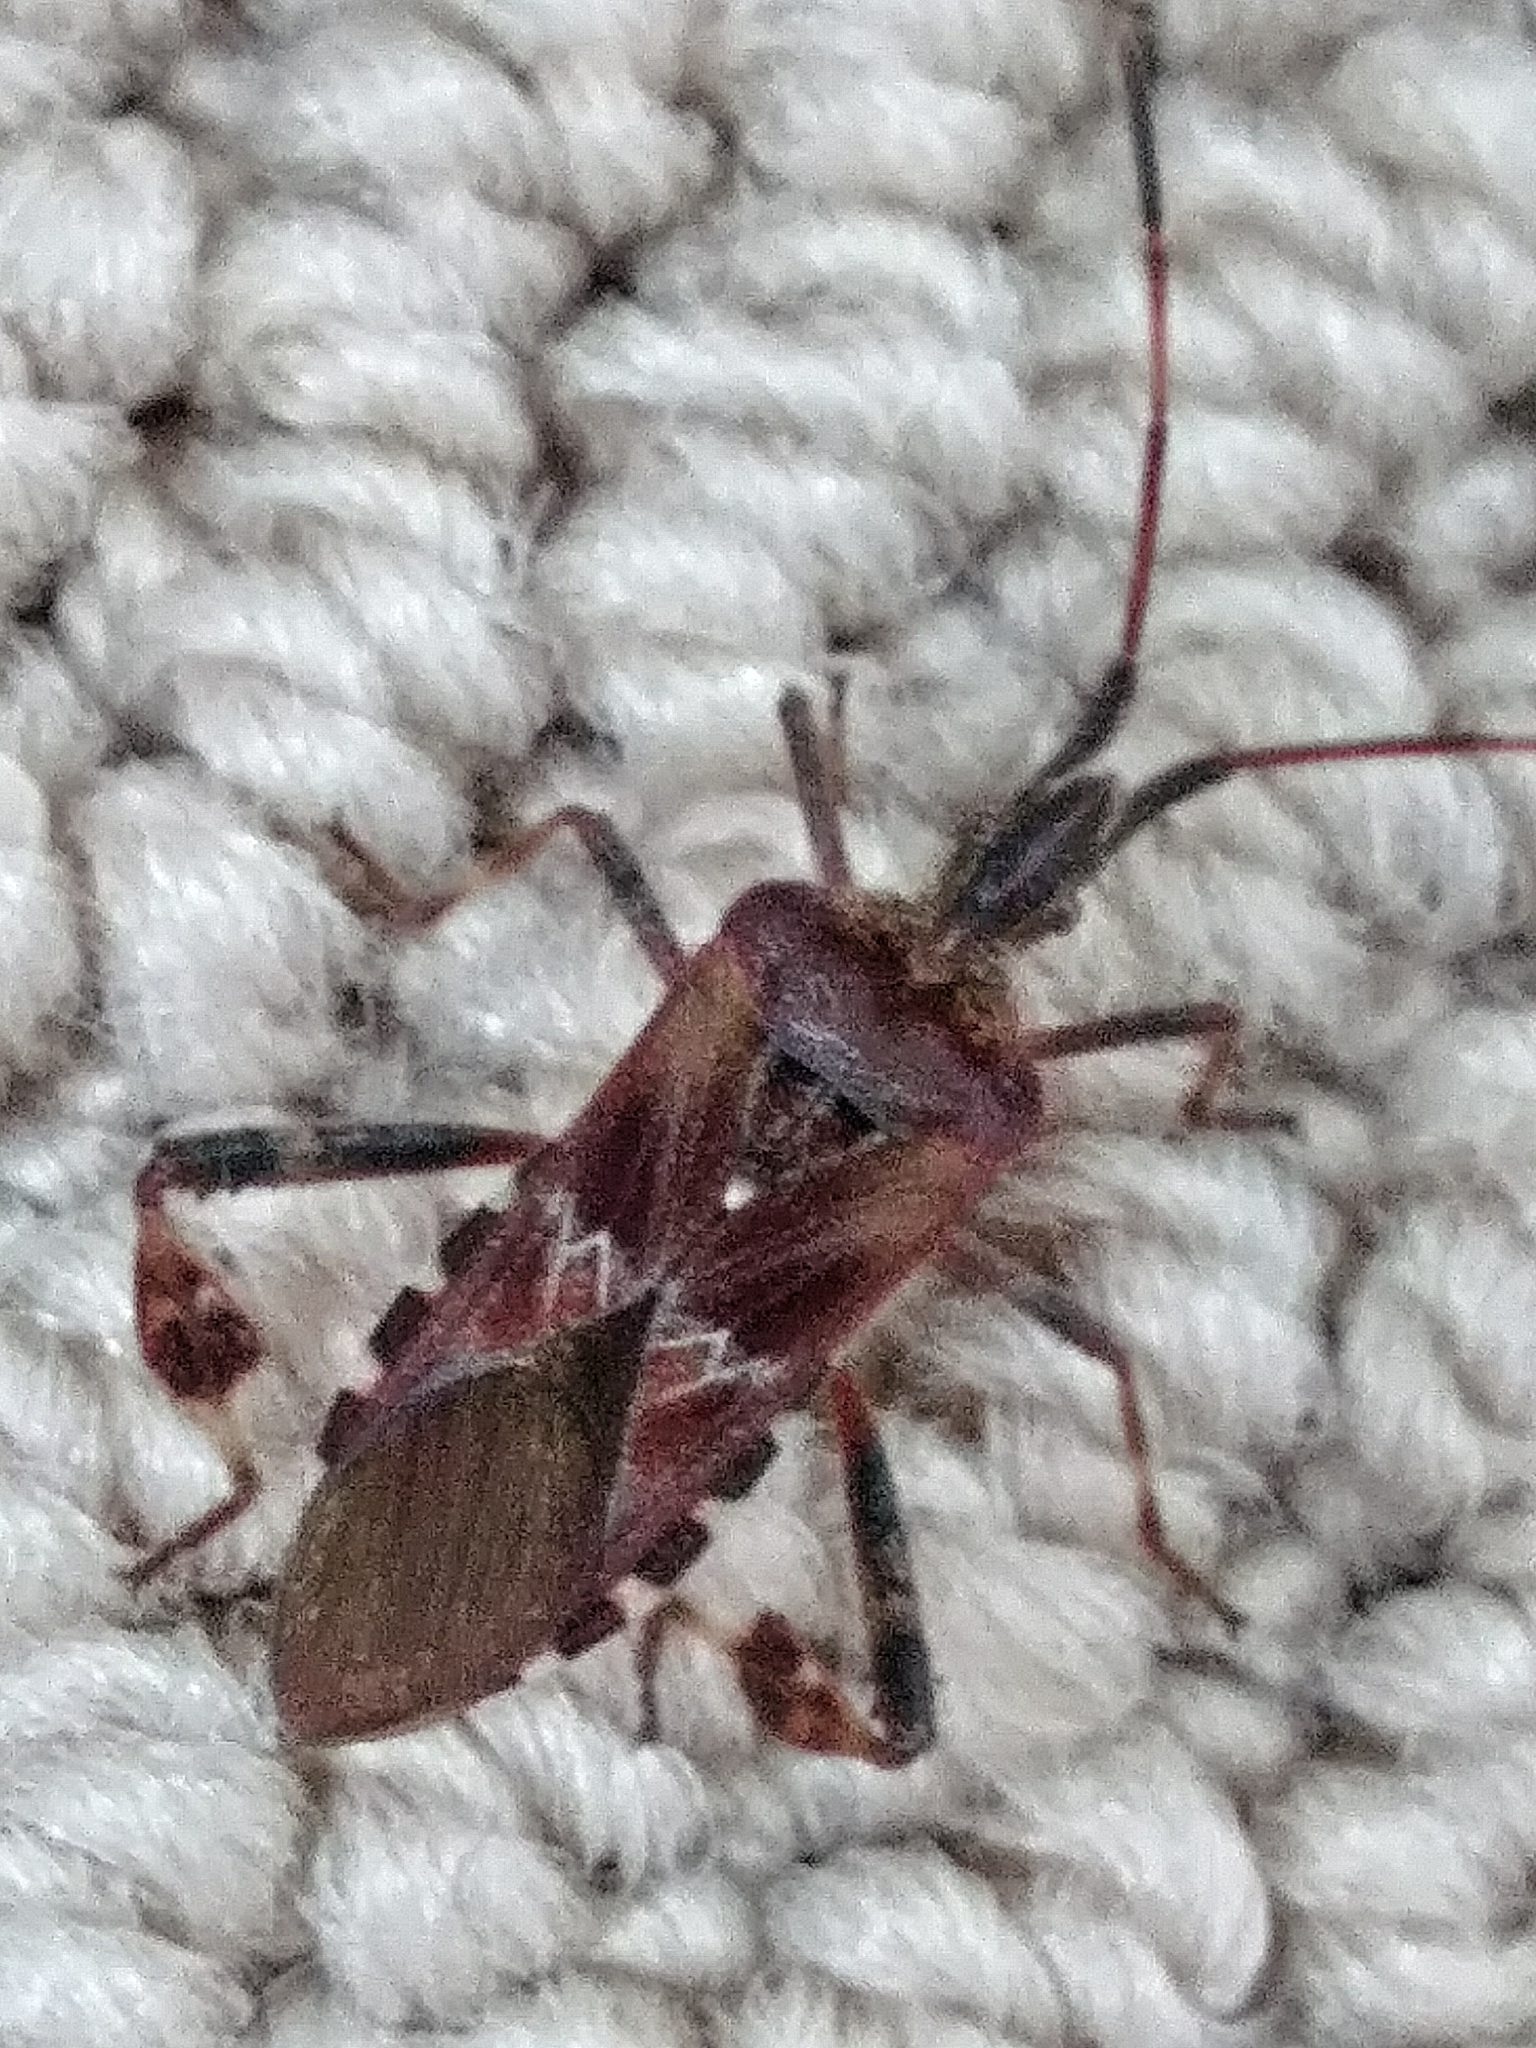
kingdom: Animalia
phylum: Arthropoda
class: Insecta
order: Hemiptera
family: Coreidae
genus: Leptoglossus
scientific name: Leptoglossus occidentalis
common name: Western conifer-seed bug
